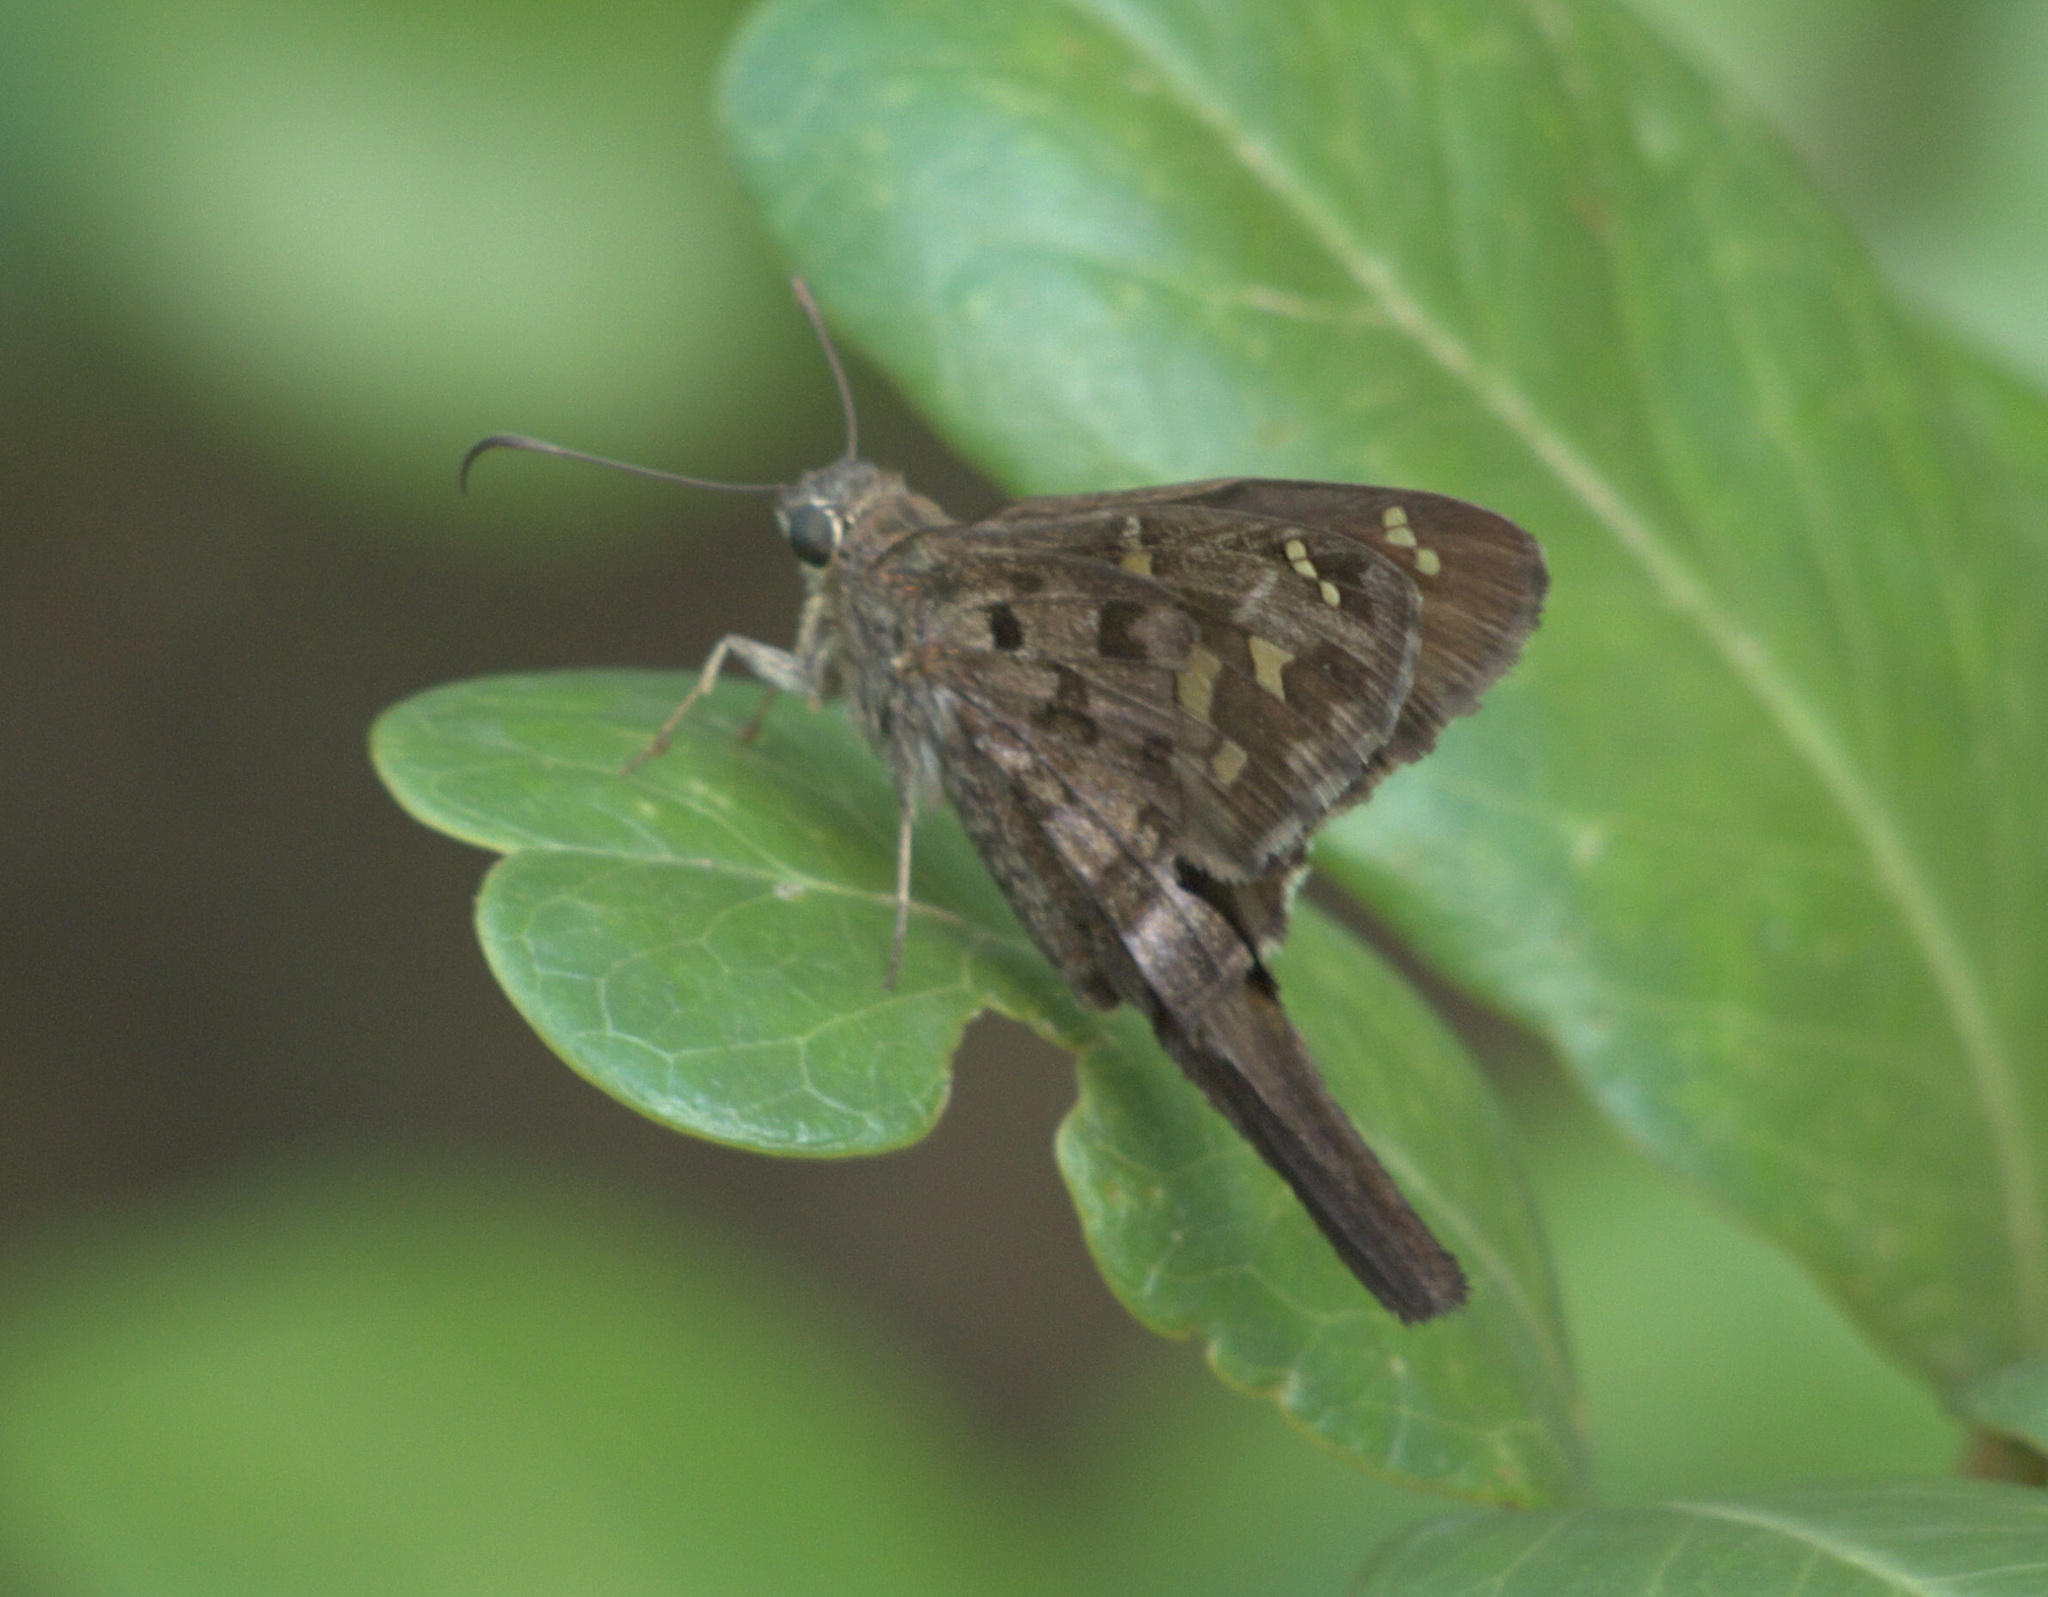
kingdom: Animalia
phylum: Arthropoda
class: Insecta
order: Lepidoptera
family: Hesperiidae
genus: Thorybes
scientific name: Thorybes
